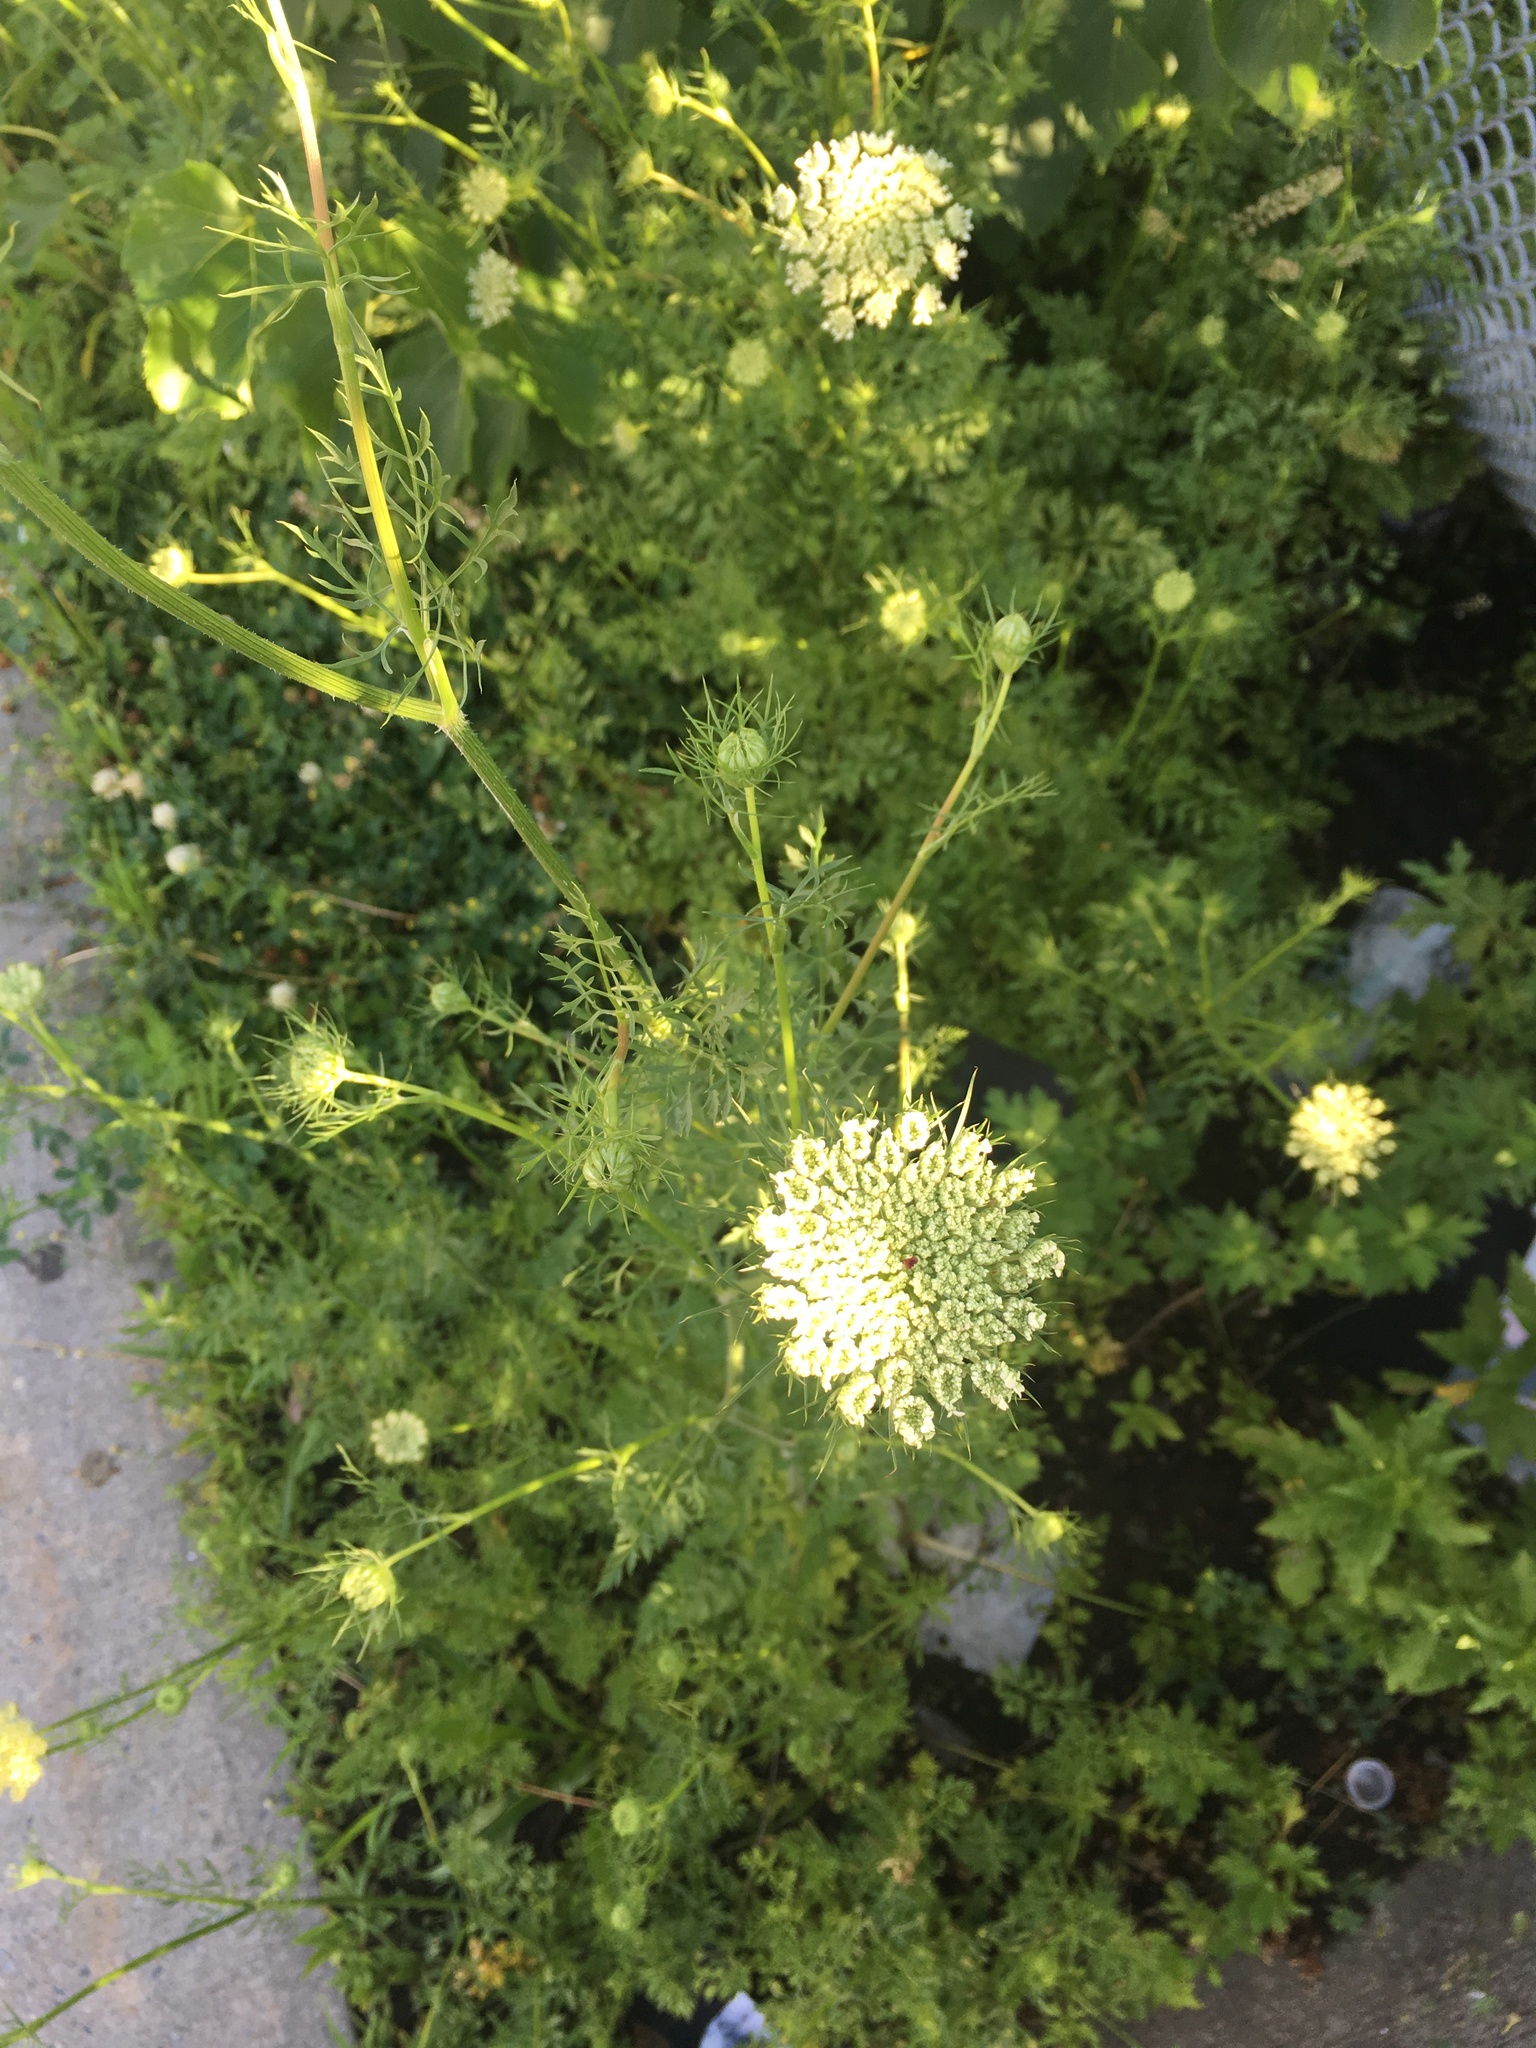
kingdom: Plantae
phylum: Tracheophyta
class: Magnoliopsida
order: Apiales
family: Apiaceae
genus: Daucus
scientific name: Daucus carota
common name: Wild carrot
